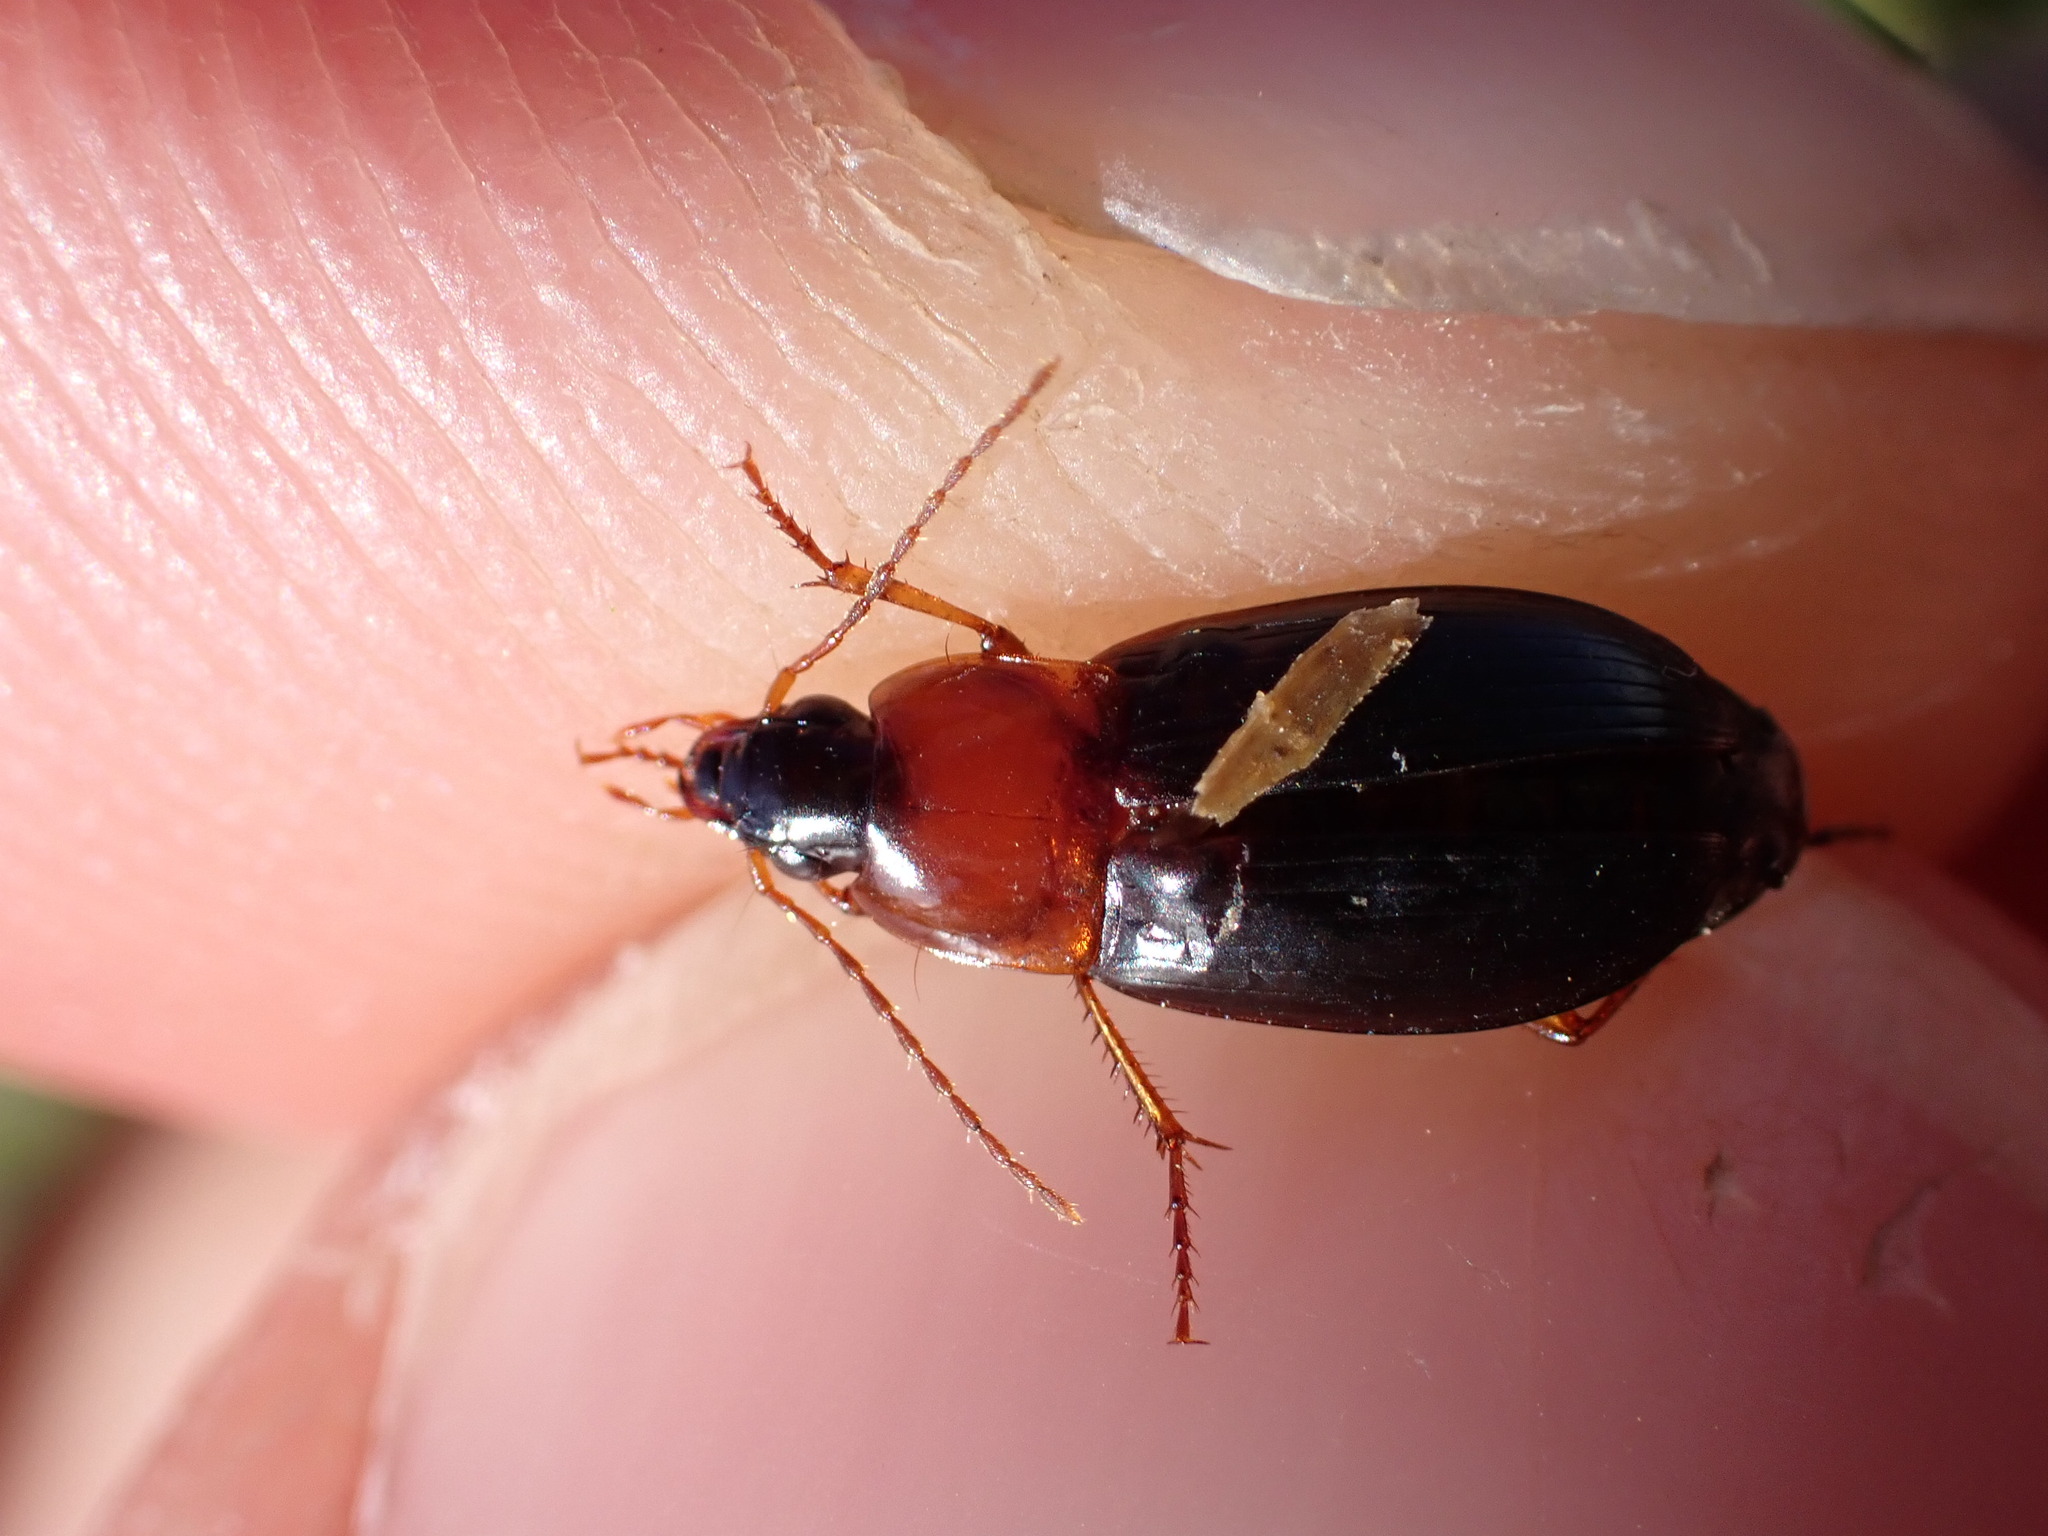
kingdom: Animalia
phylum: Arthropoda
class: Insecta
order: Coleoptera
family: Carabidae
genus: Calathus
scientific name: Calathus melanocephalus
